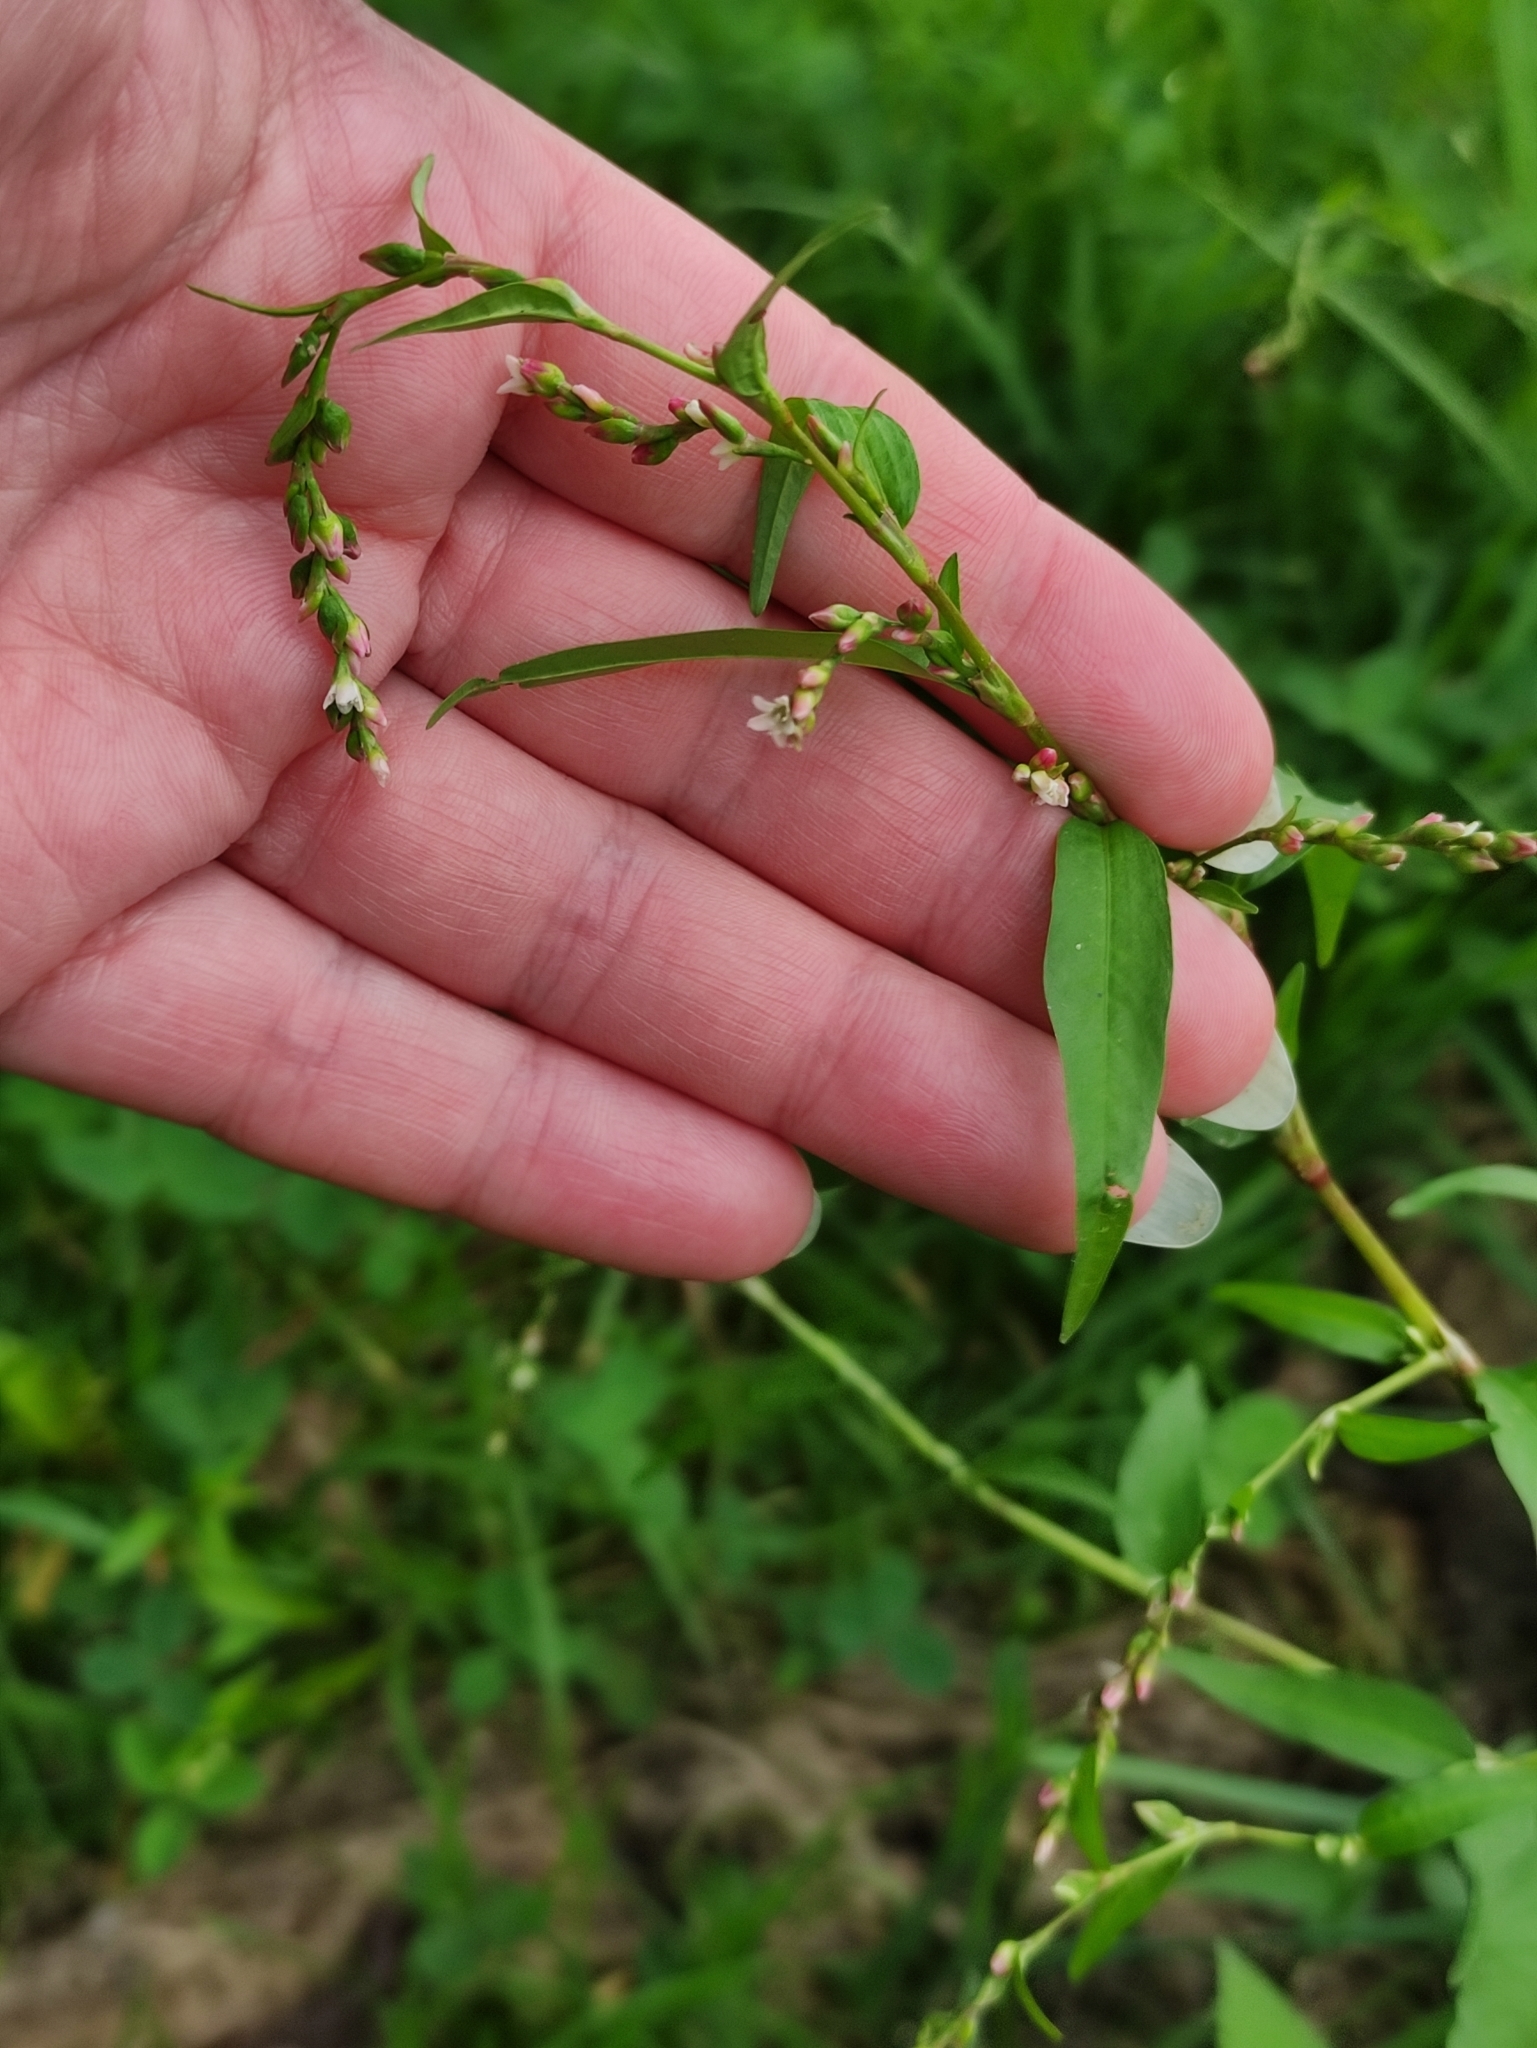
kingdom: Plantae
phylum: Tracheophyta
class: Magnoliopsida
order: Caryophyllales
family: Polygonaceae
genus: Persicaria
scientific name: Persicaria hydropiper
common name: Water-pepper
